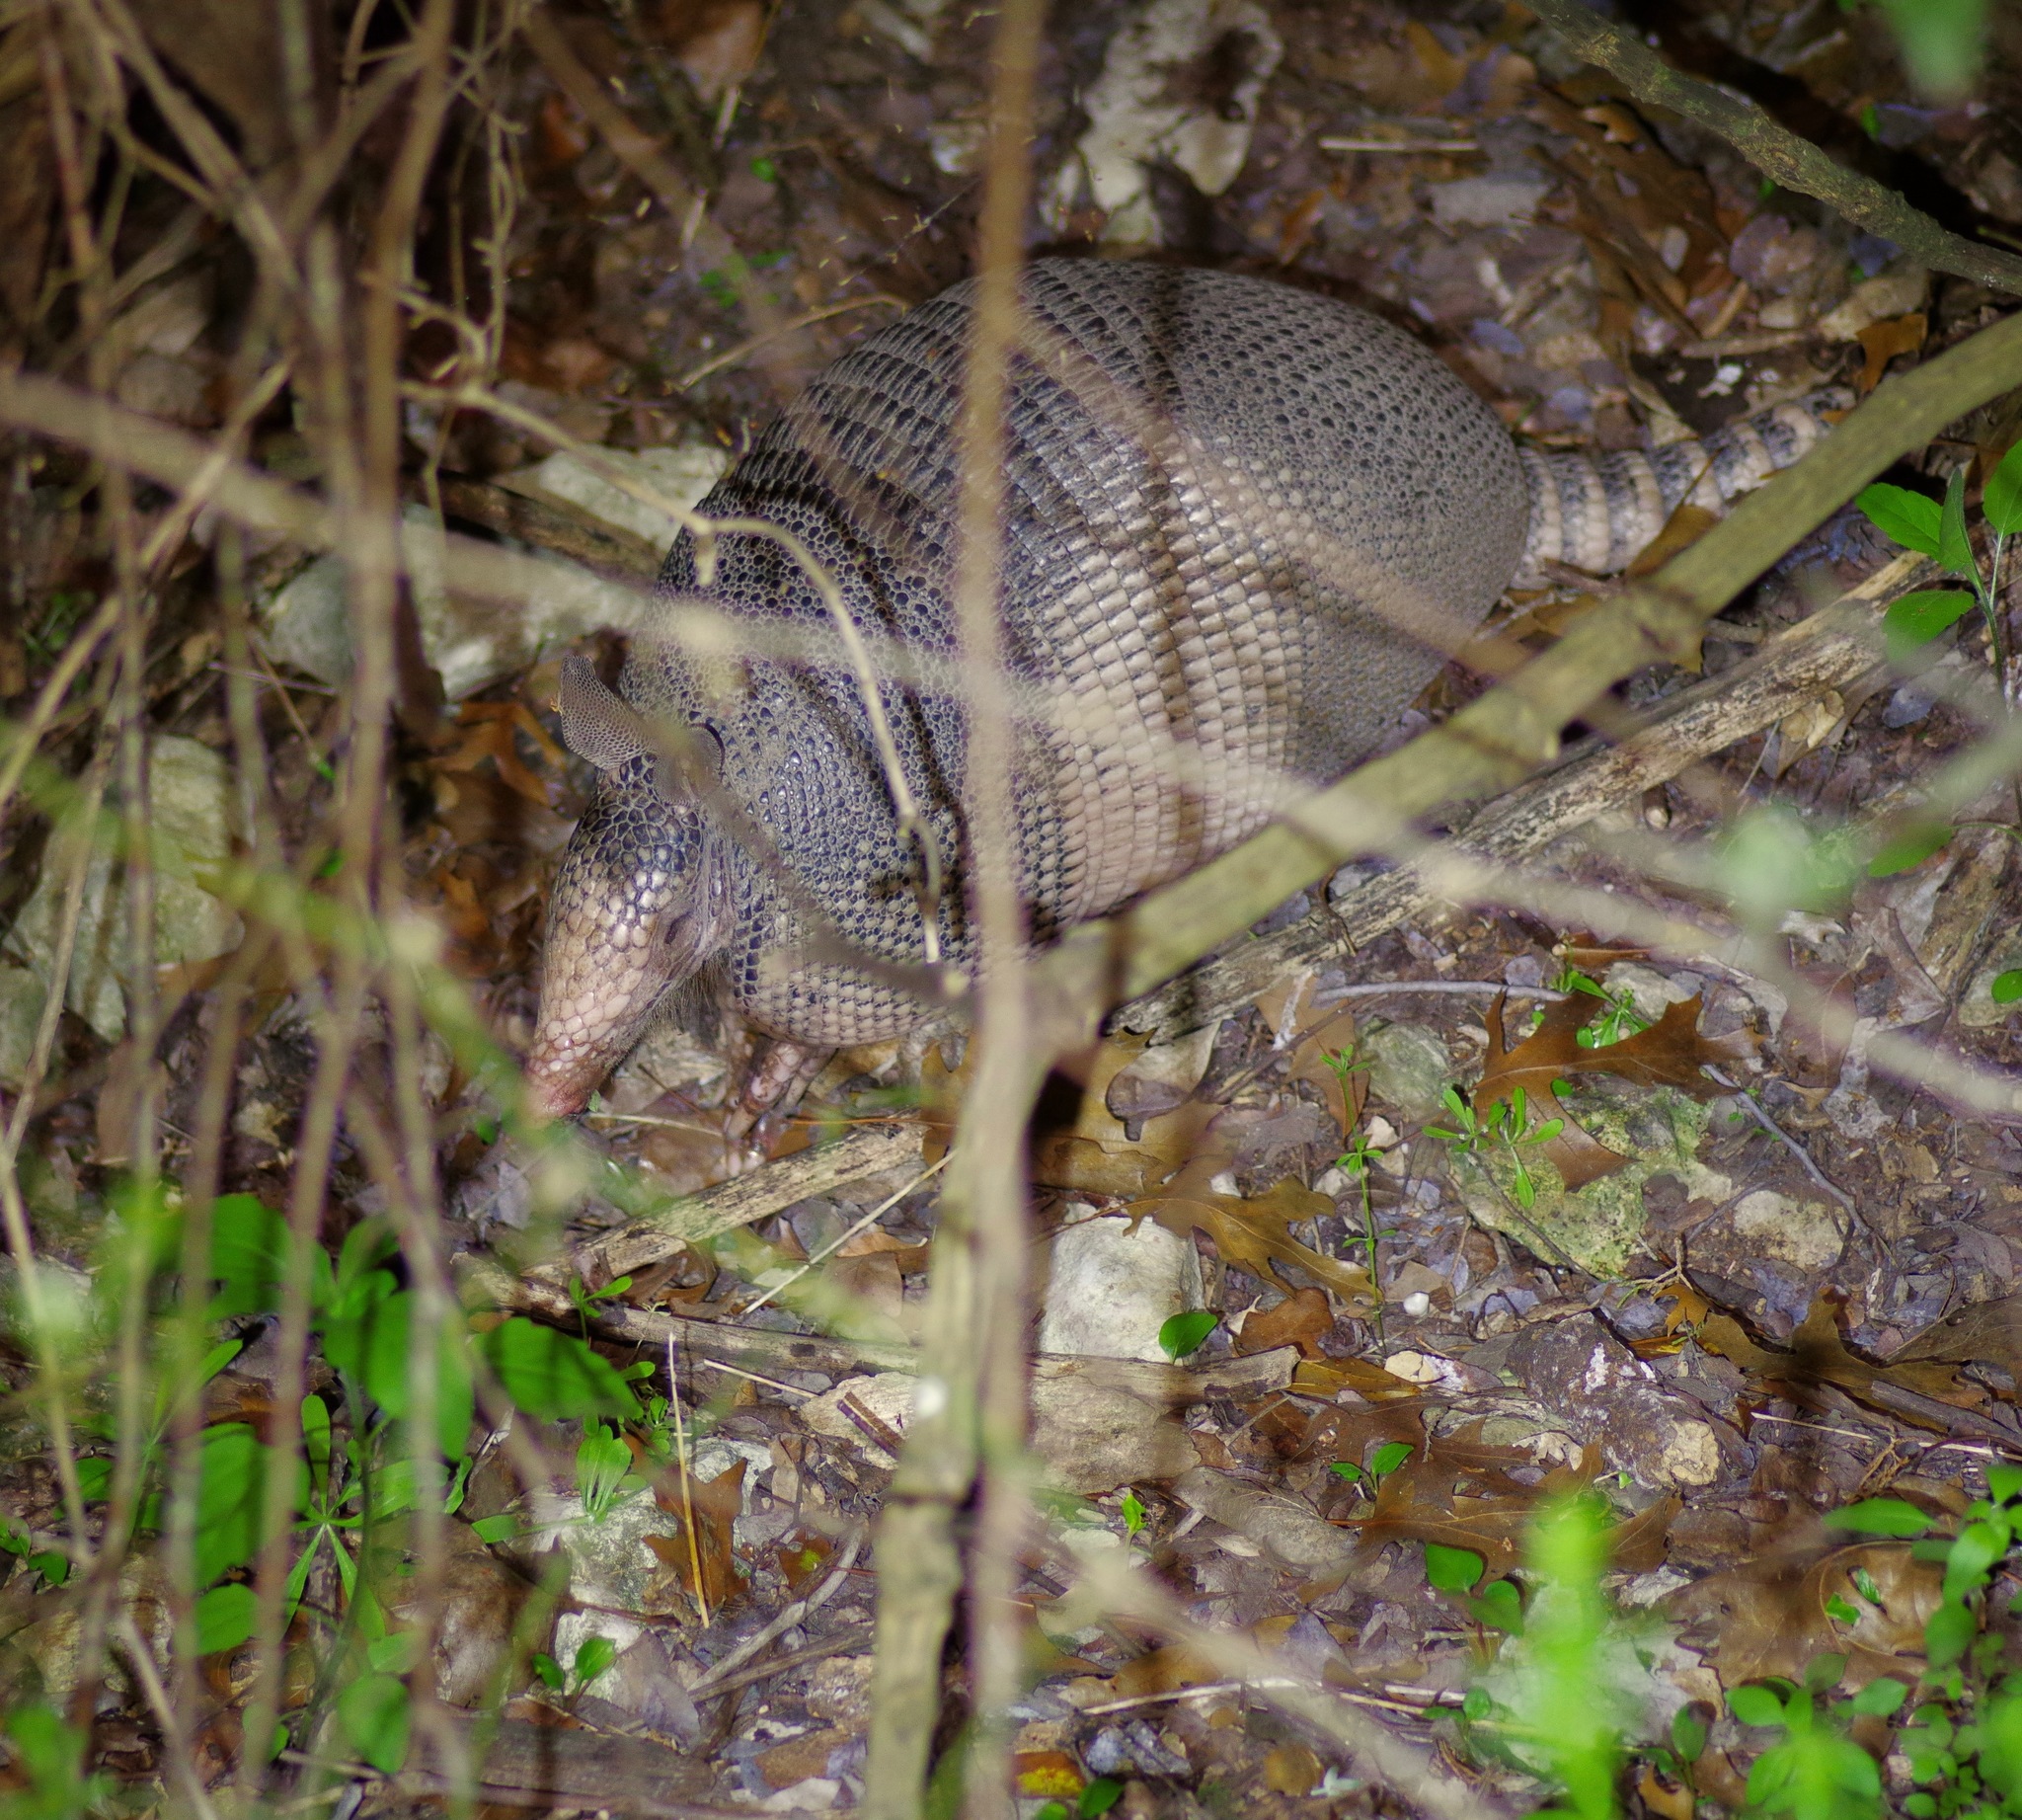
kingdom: Animalia
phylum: Chordata
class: Mammalia
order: Cingulata
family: Dasypodidae
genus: Dasypus
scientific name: Dasypus novemcinctus
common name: Nine-banded armadillo
